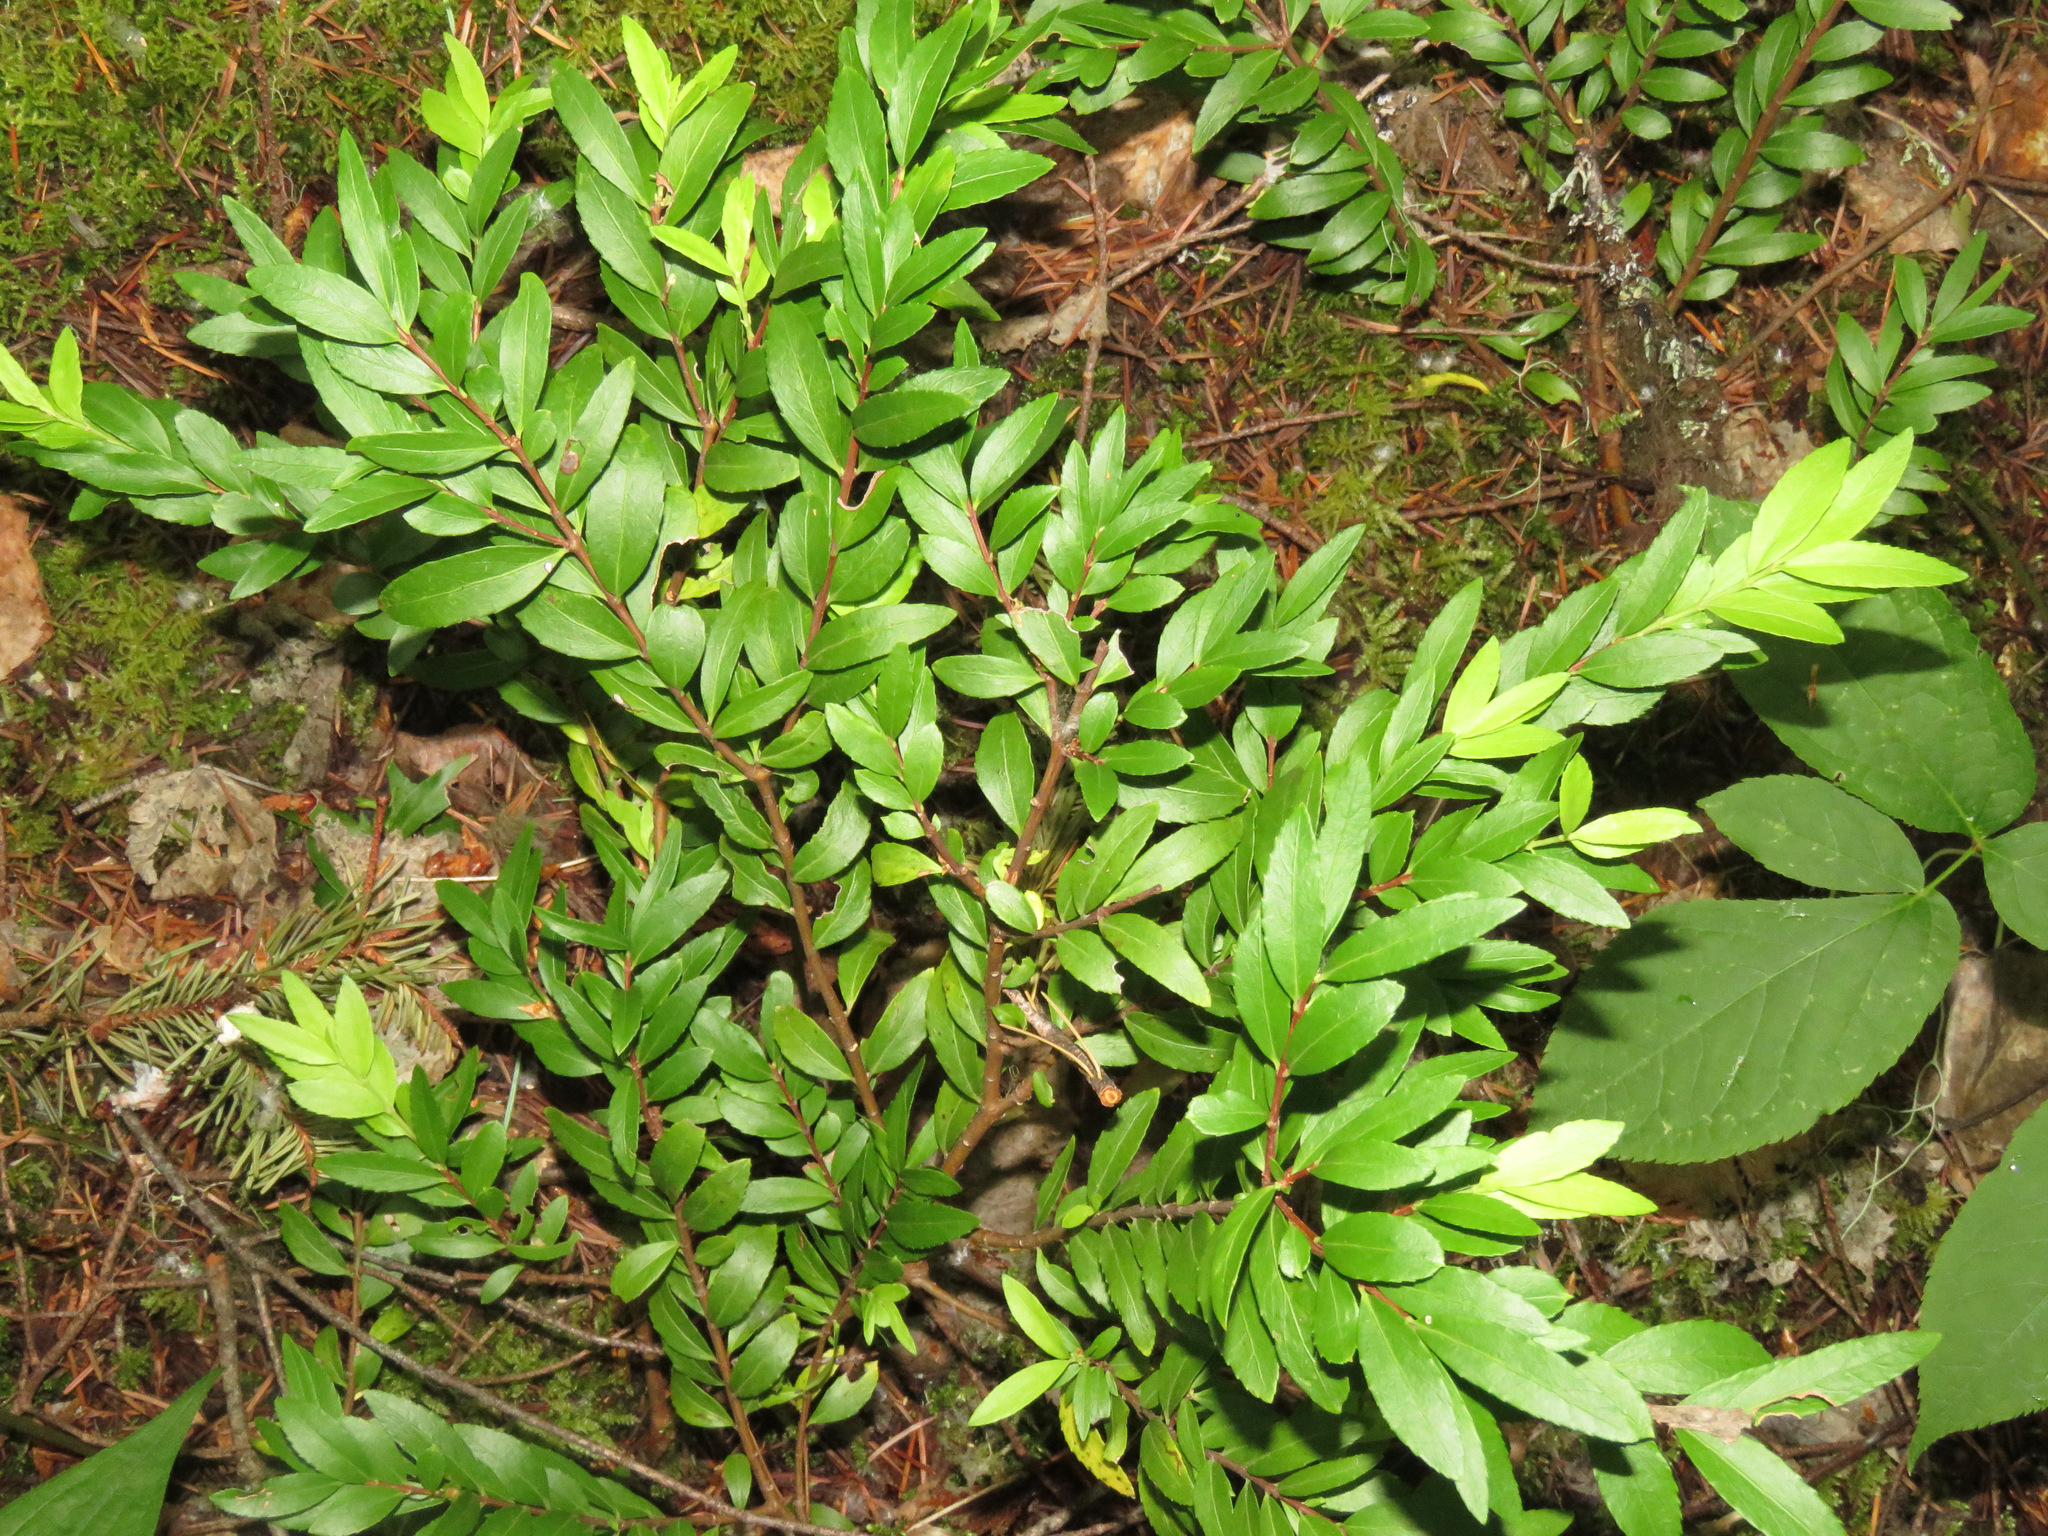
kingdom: Plantae
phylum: Tracheophyta
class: Magnoliopsida
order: Celastrales
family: Celastraceae
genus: Paxistima
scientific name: Paxistima myrsinites
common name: Mountain-lover
